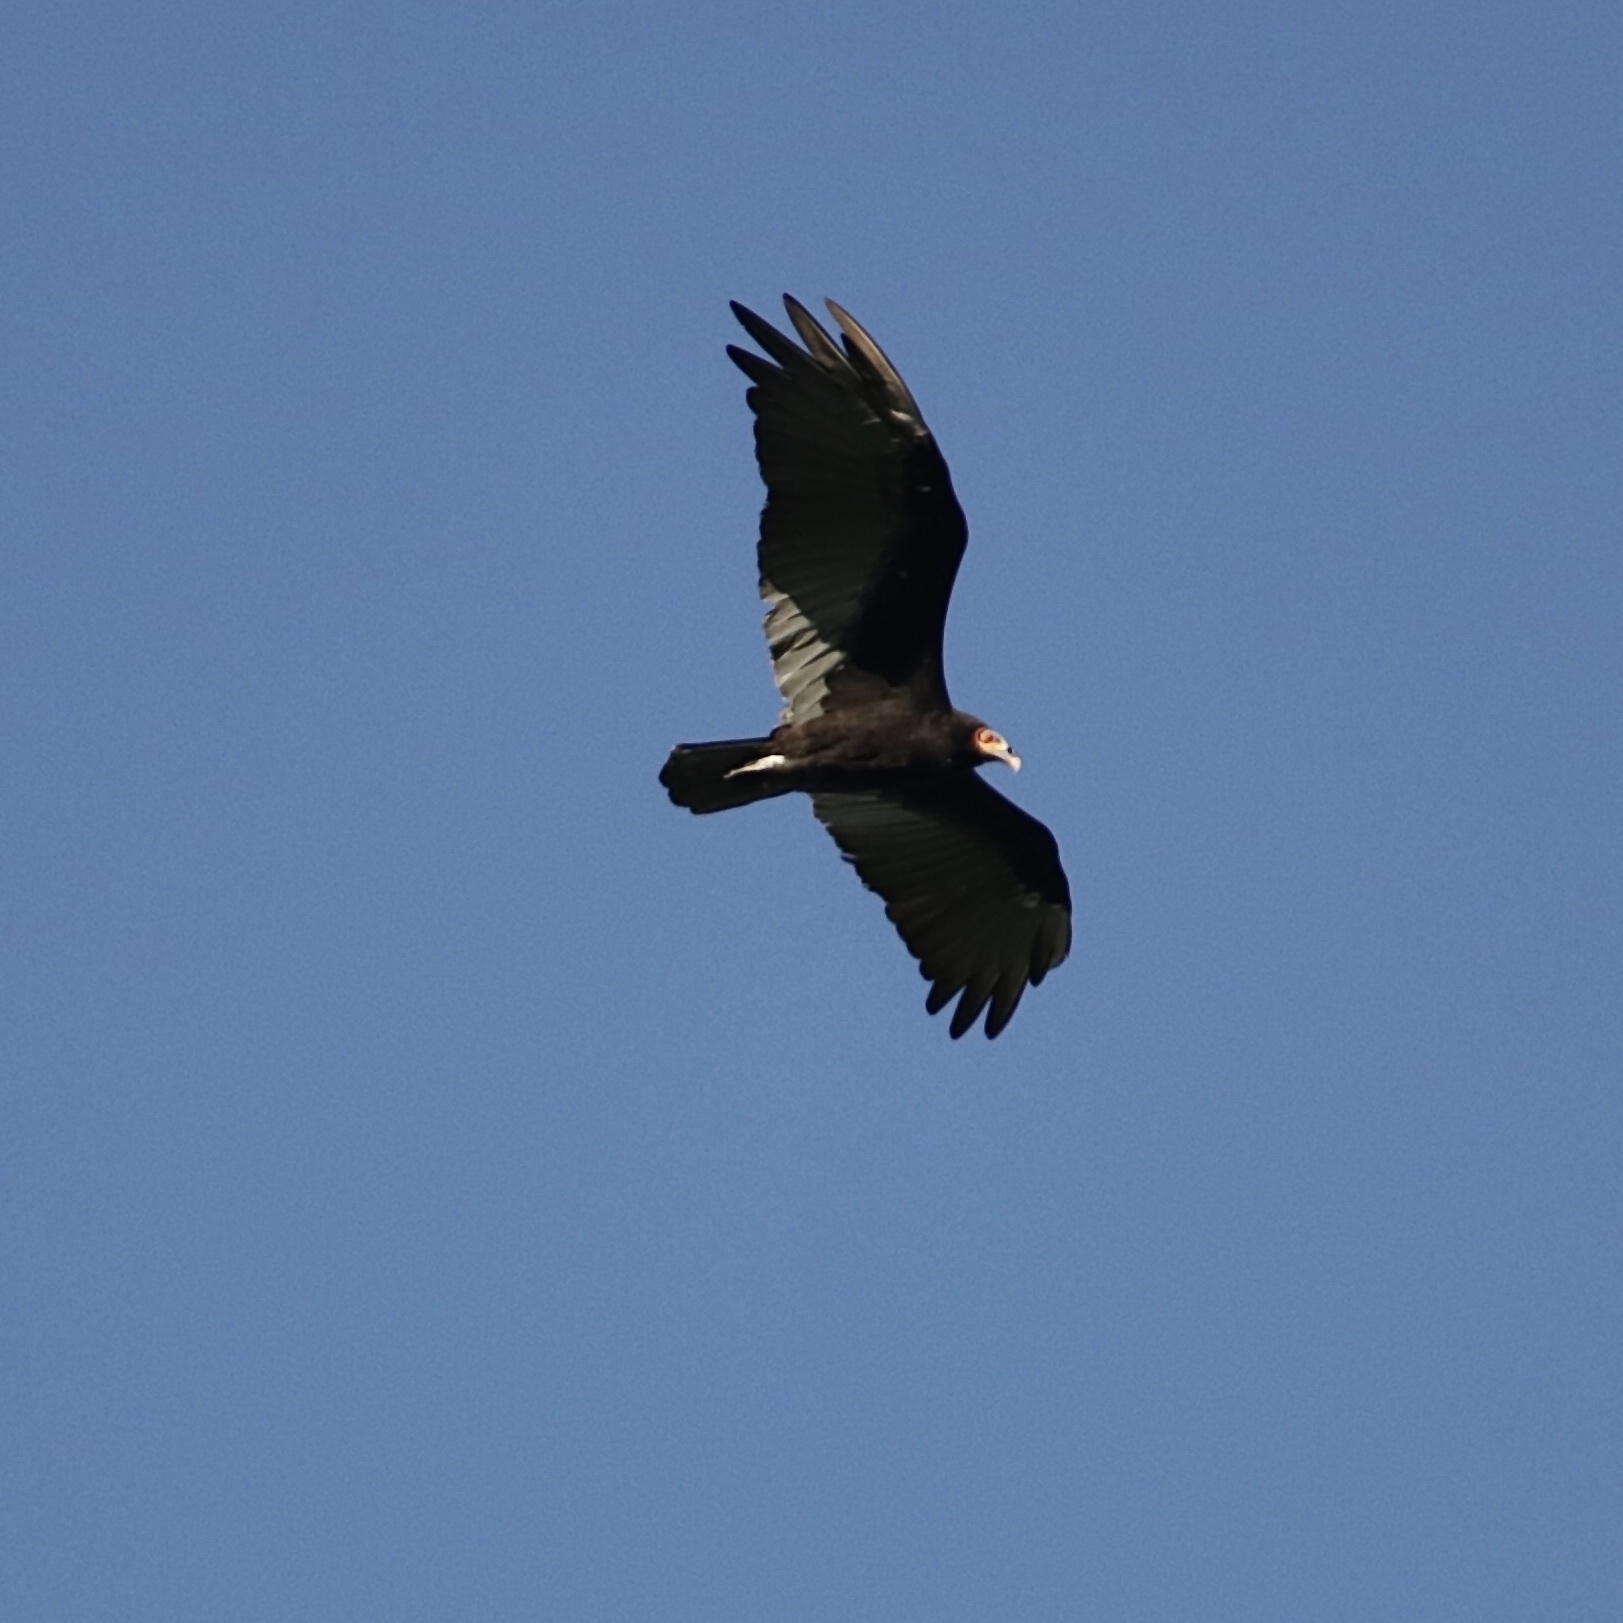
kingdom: Animalia
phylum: Chordata
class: Aves
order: Accipitriformes
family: Cathartidae
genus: Cathartes
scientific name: Cathartes burrovianus
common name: Lesser yellow-headed vulture
